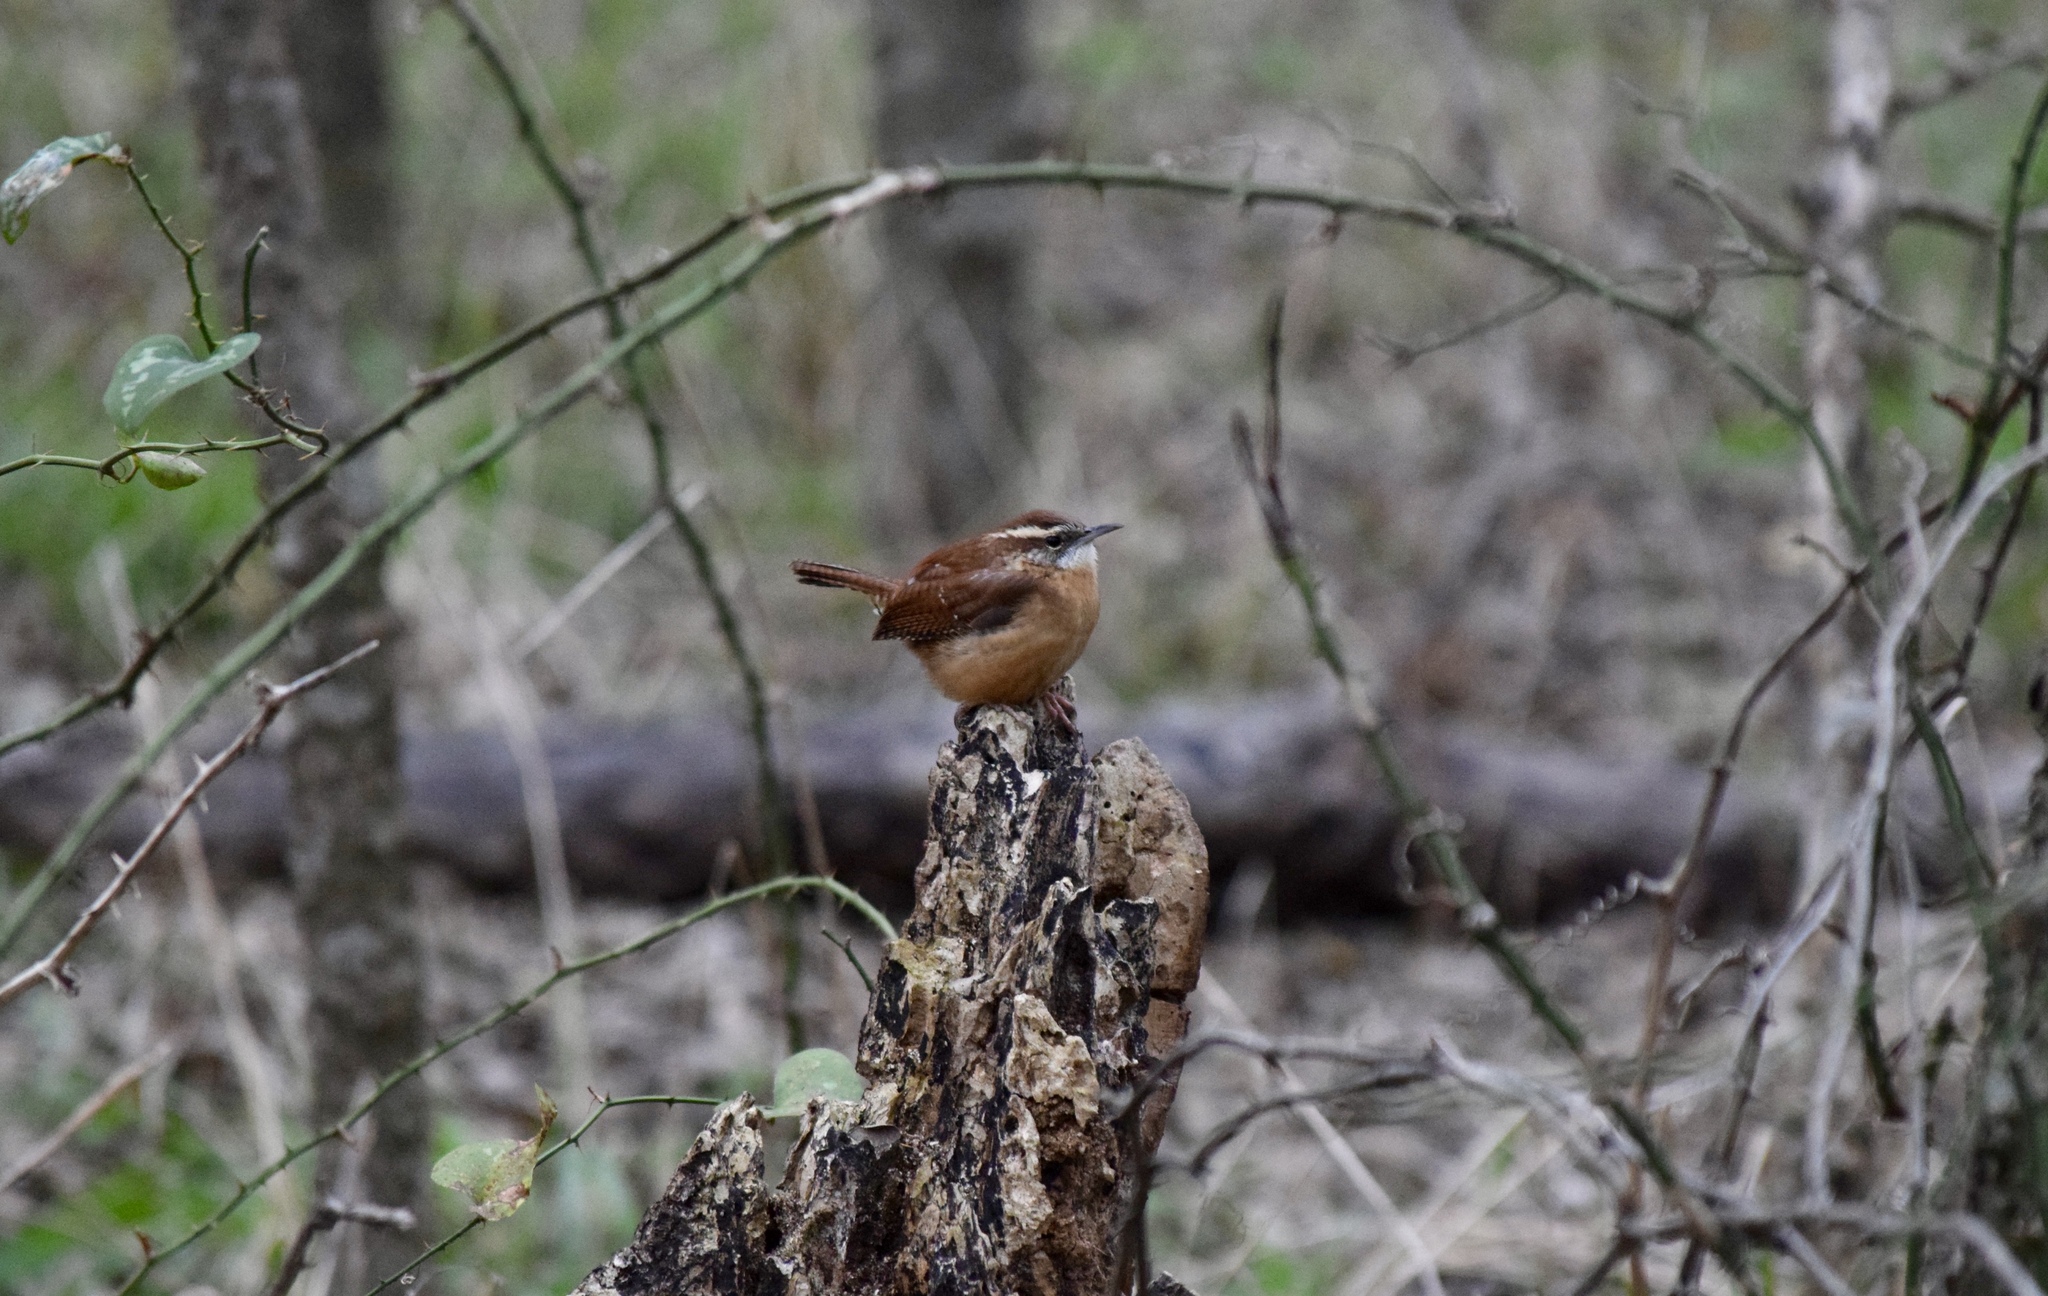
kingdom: Animalia
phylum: Chordata
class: Aves
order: Passeriformes
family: Troglodytidae
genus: Thryothorus
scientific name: Thryothorus ludovicianus
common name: Carolina wren
